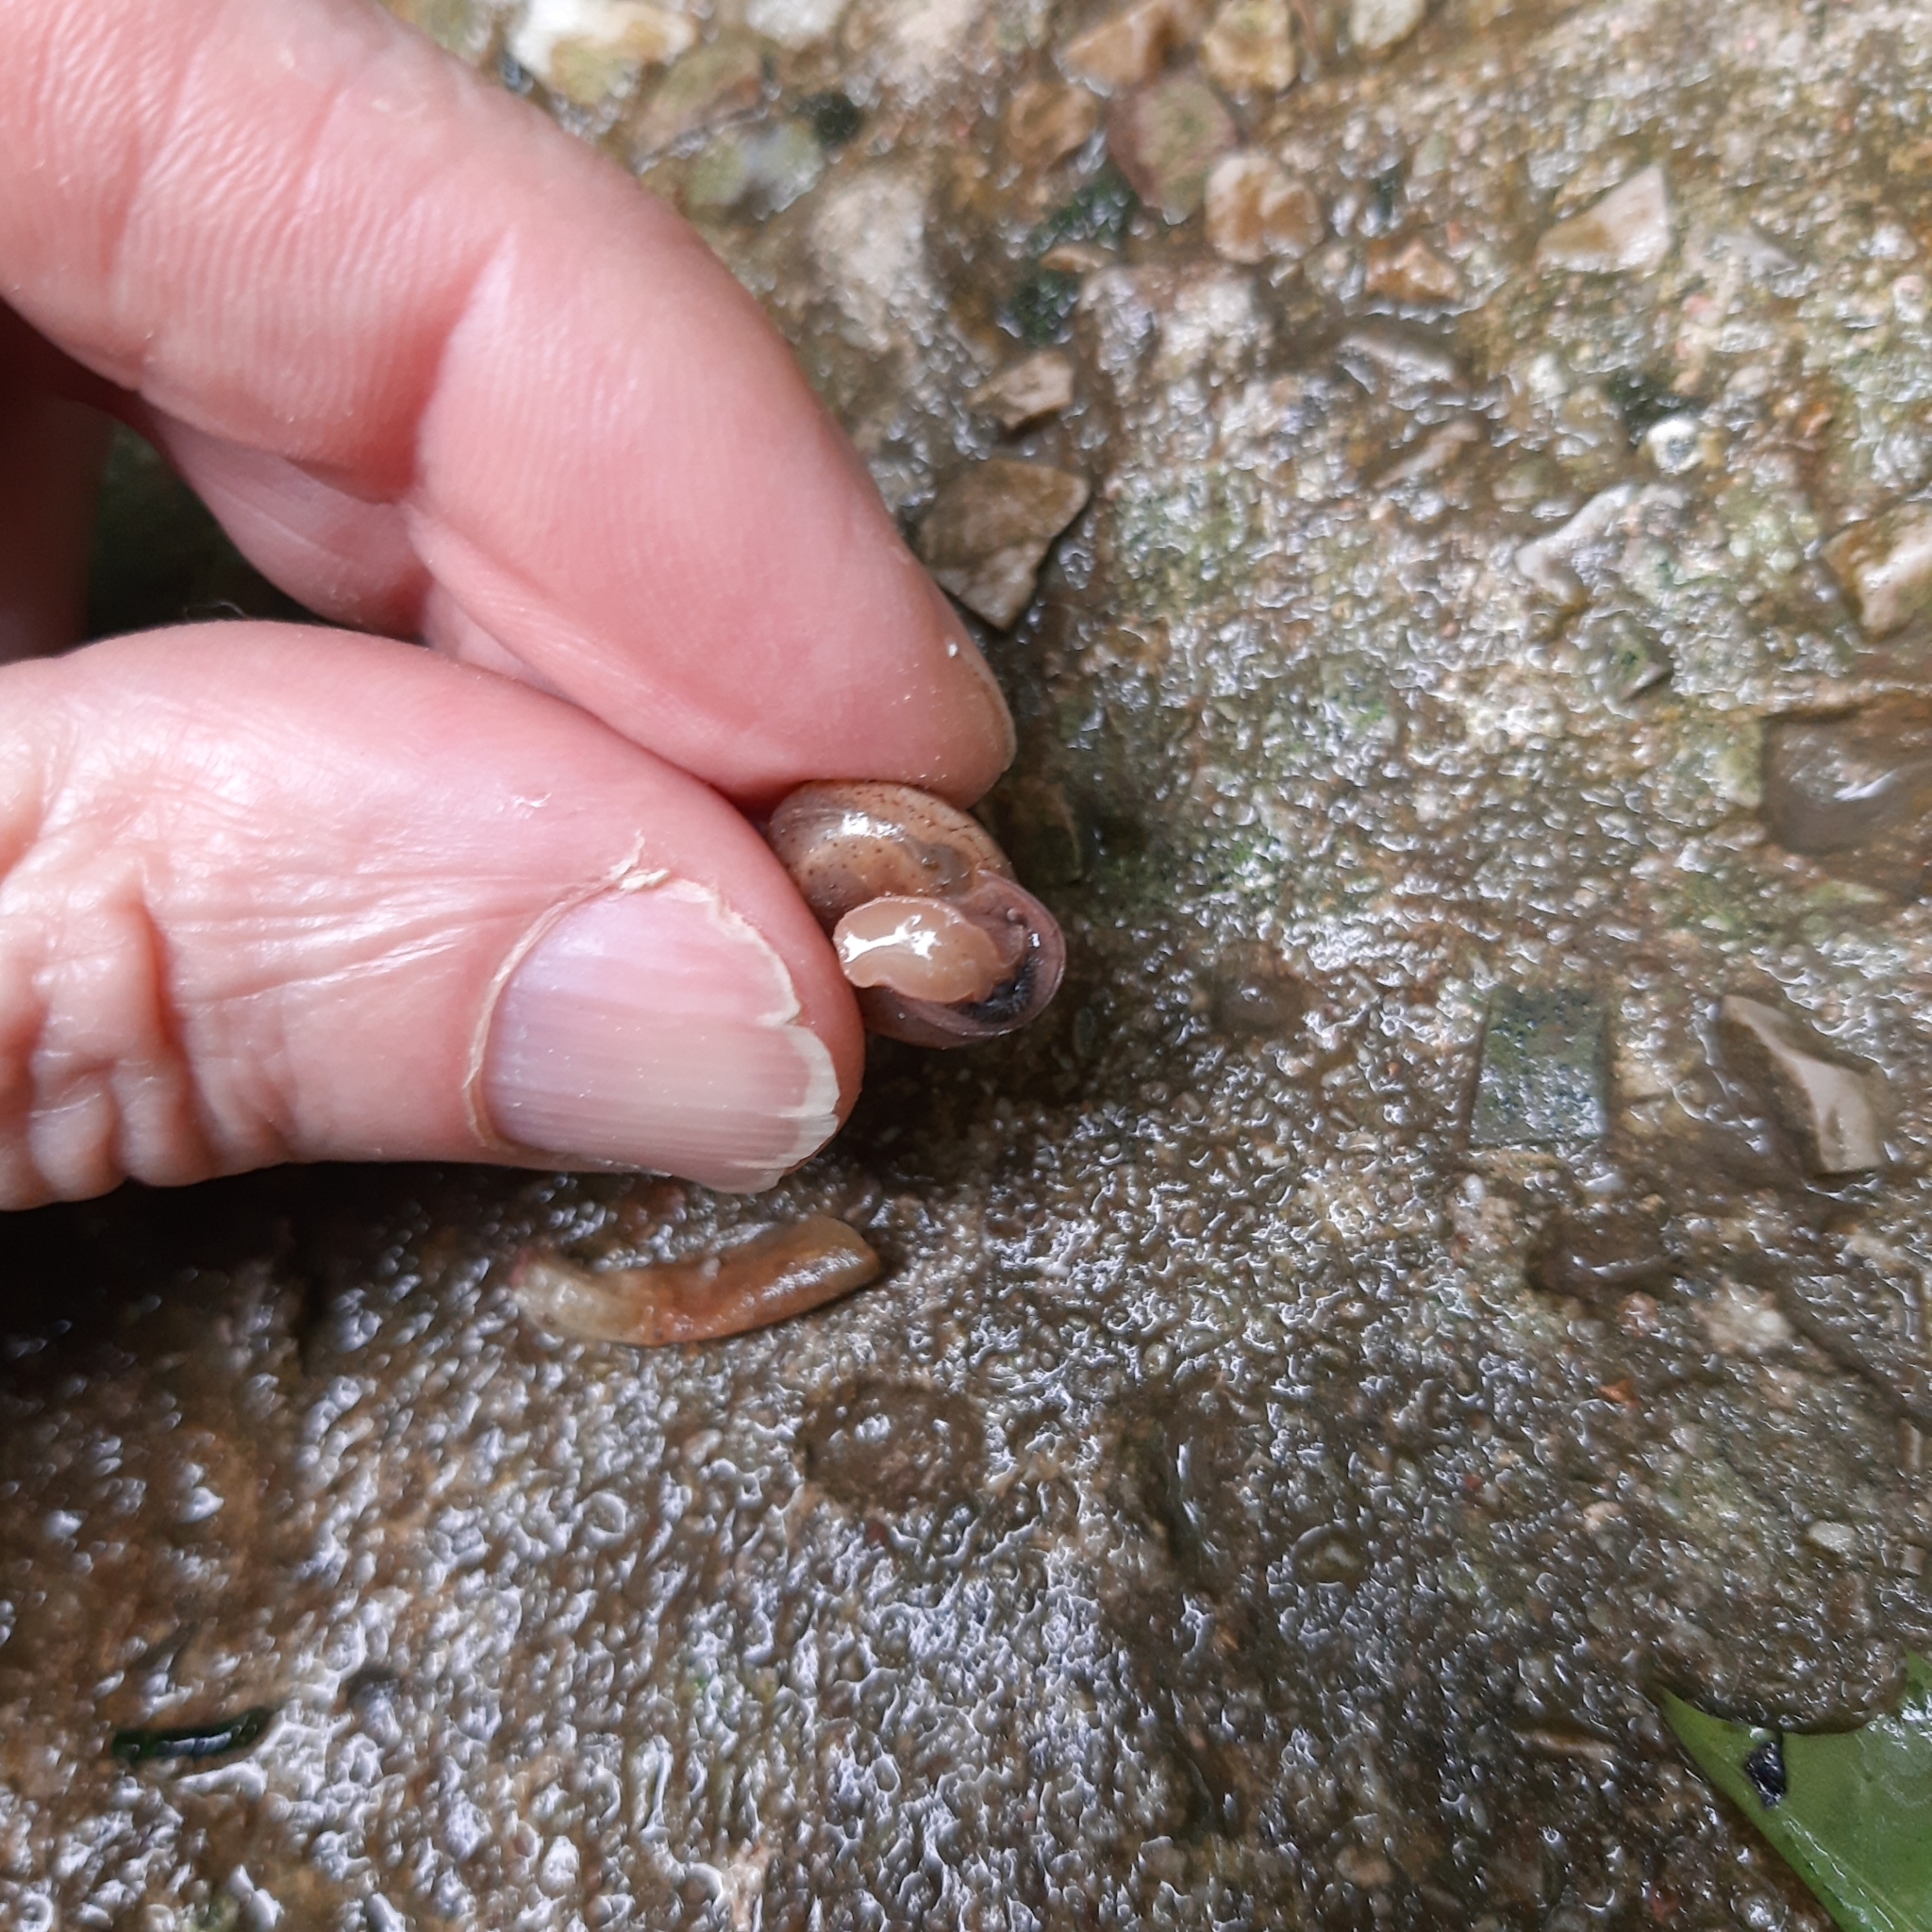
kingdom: Animalia
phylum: Mollusca
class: Gastropoda
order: Stylommatophora
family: Hygromiidae
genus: Monachoides
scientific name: Monachoides incarnatus
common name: Incarnate snail
